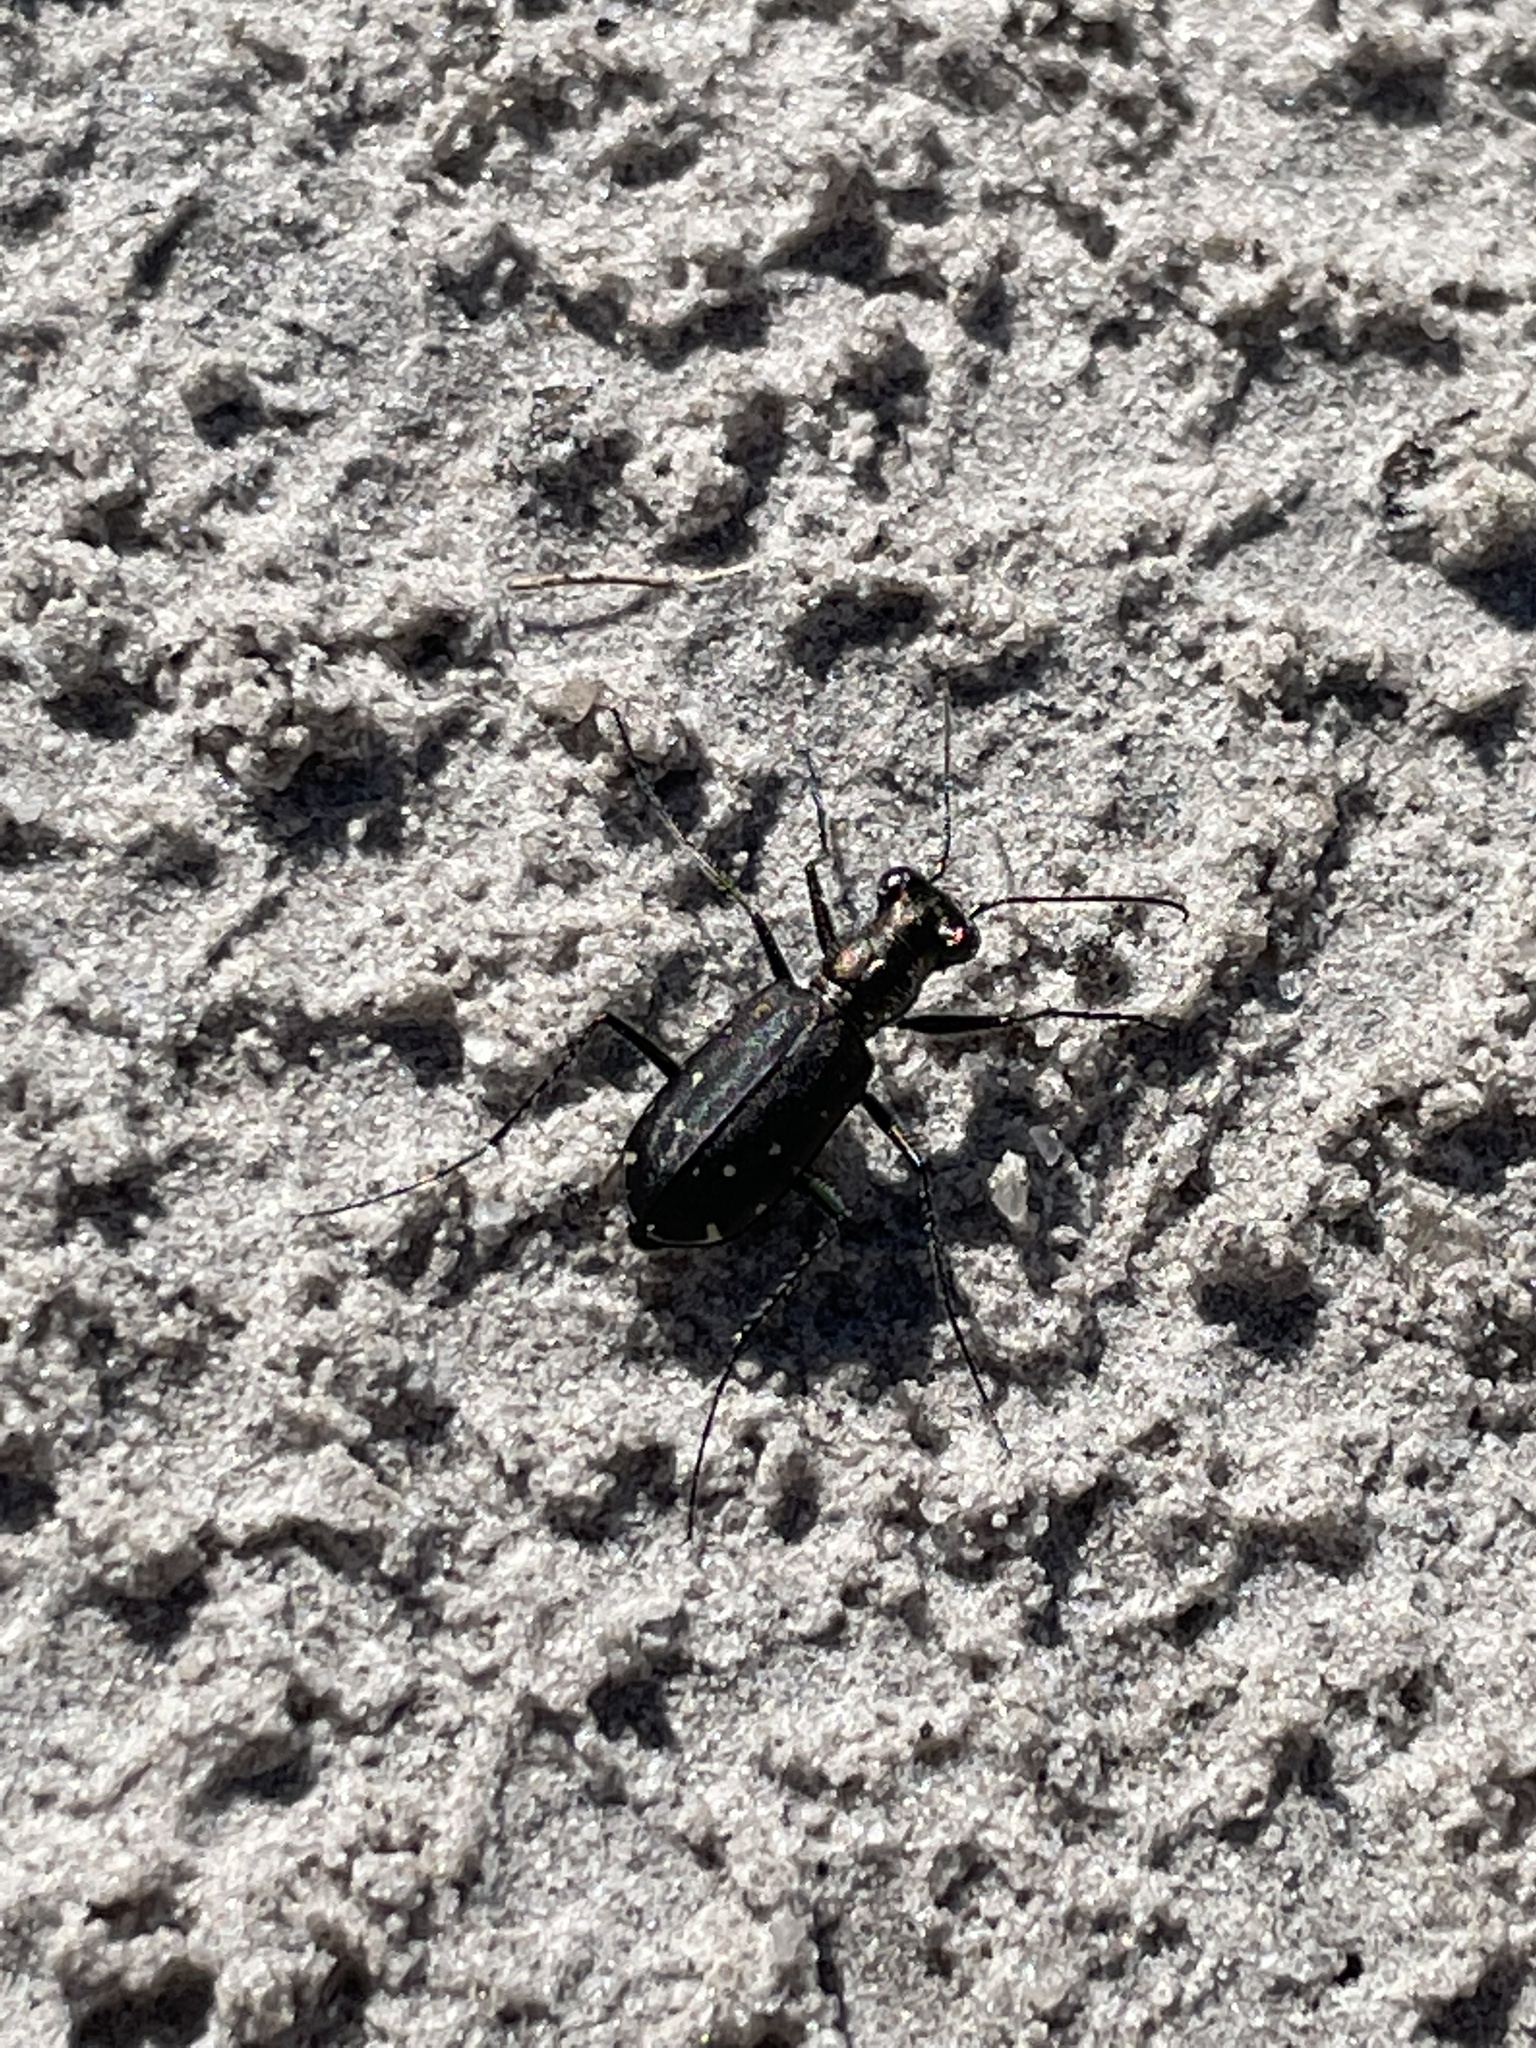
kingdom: Animalia
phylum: Arthropoda
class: Insecta
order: Coleoptera
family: Carabidae
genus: Cicindela
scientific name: Cicindela punctulata
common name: Punctured tiger beetle
